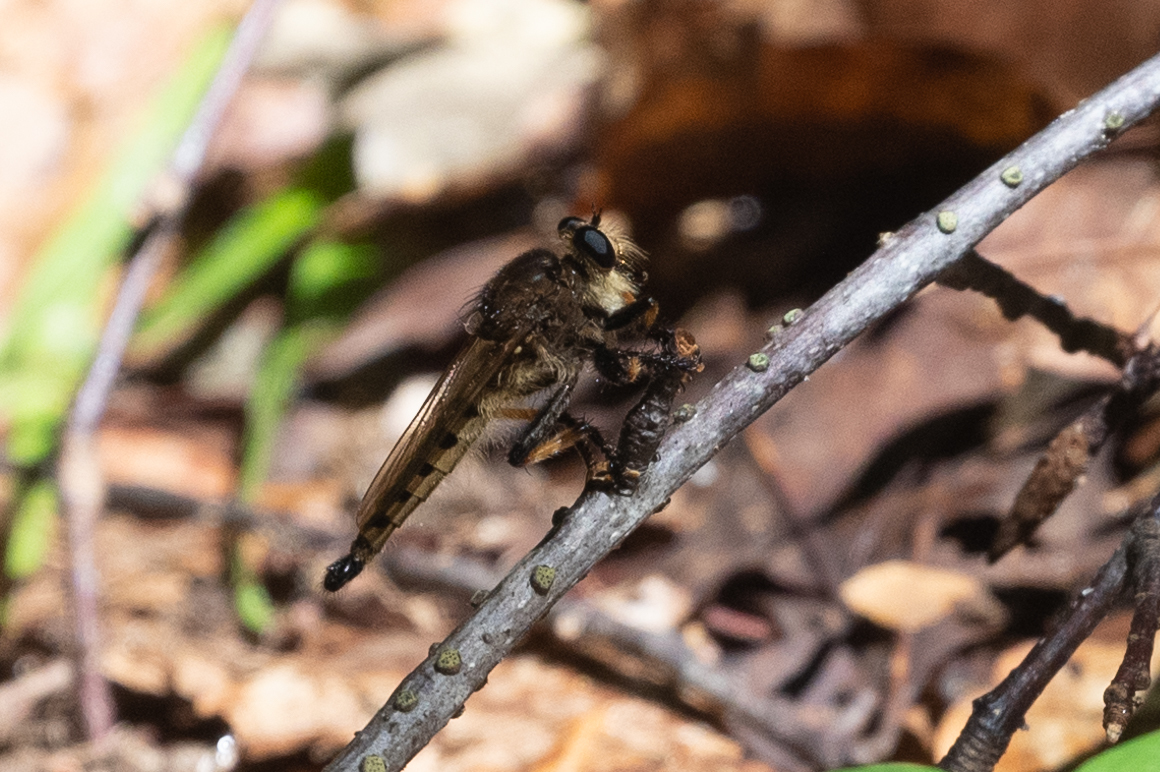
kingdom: Animalia
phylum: Arthropoda
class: Insecta
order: Diptera
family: Asilidae
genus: Promachus
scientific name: Promachus rufipes
